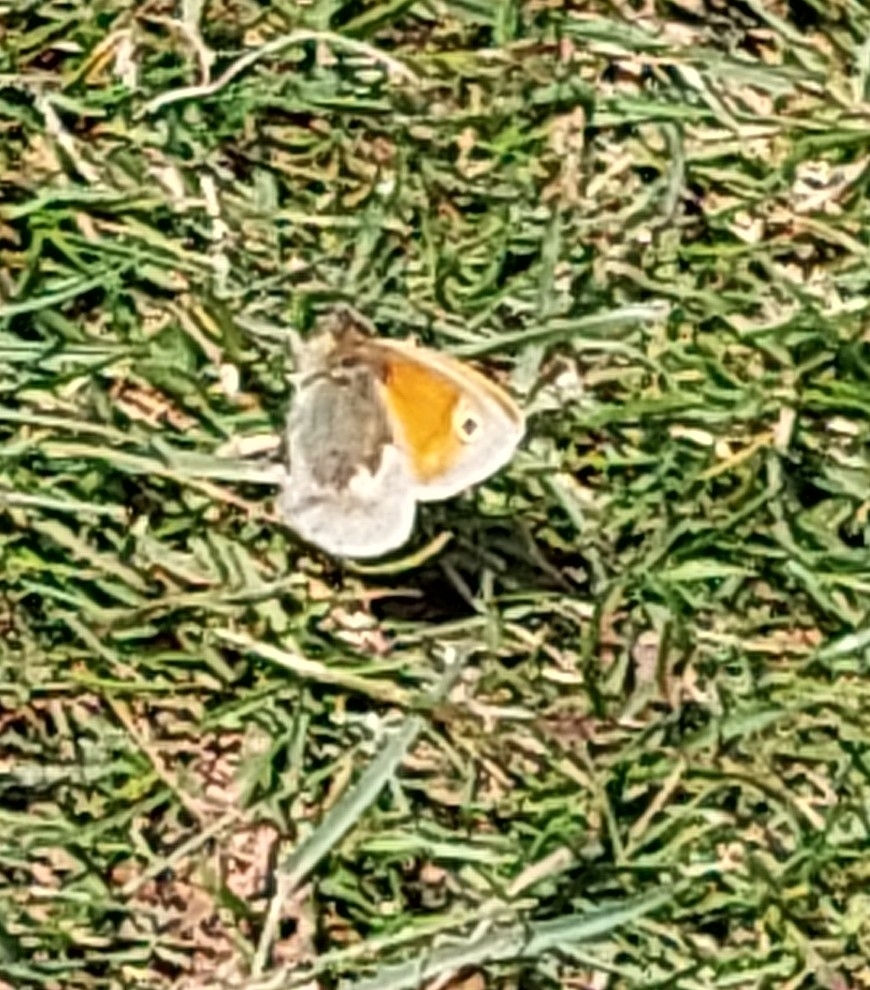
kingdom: Animalia
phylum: Arthropoda
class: Insecta
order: Lepidoptera
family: Nymphalidae
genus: Coenonympha
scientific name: Coenonympha pamphilus
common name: Small heath
